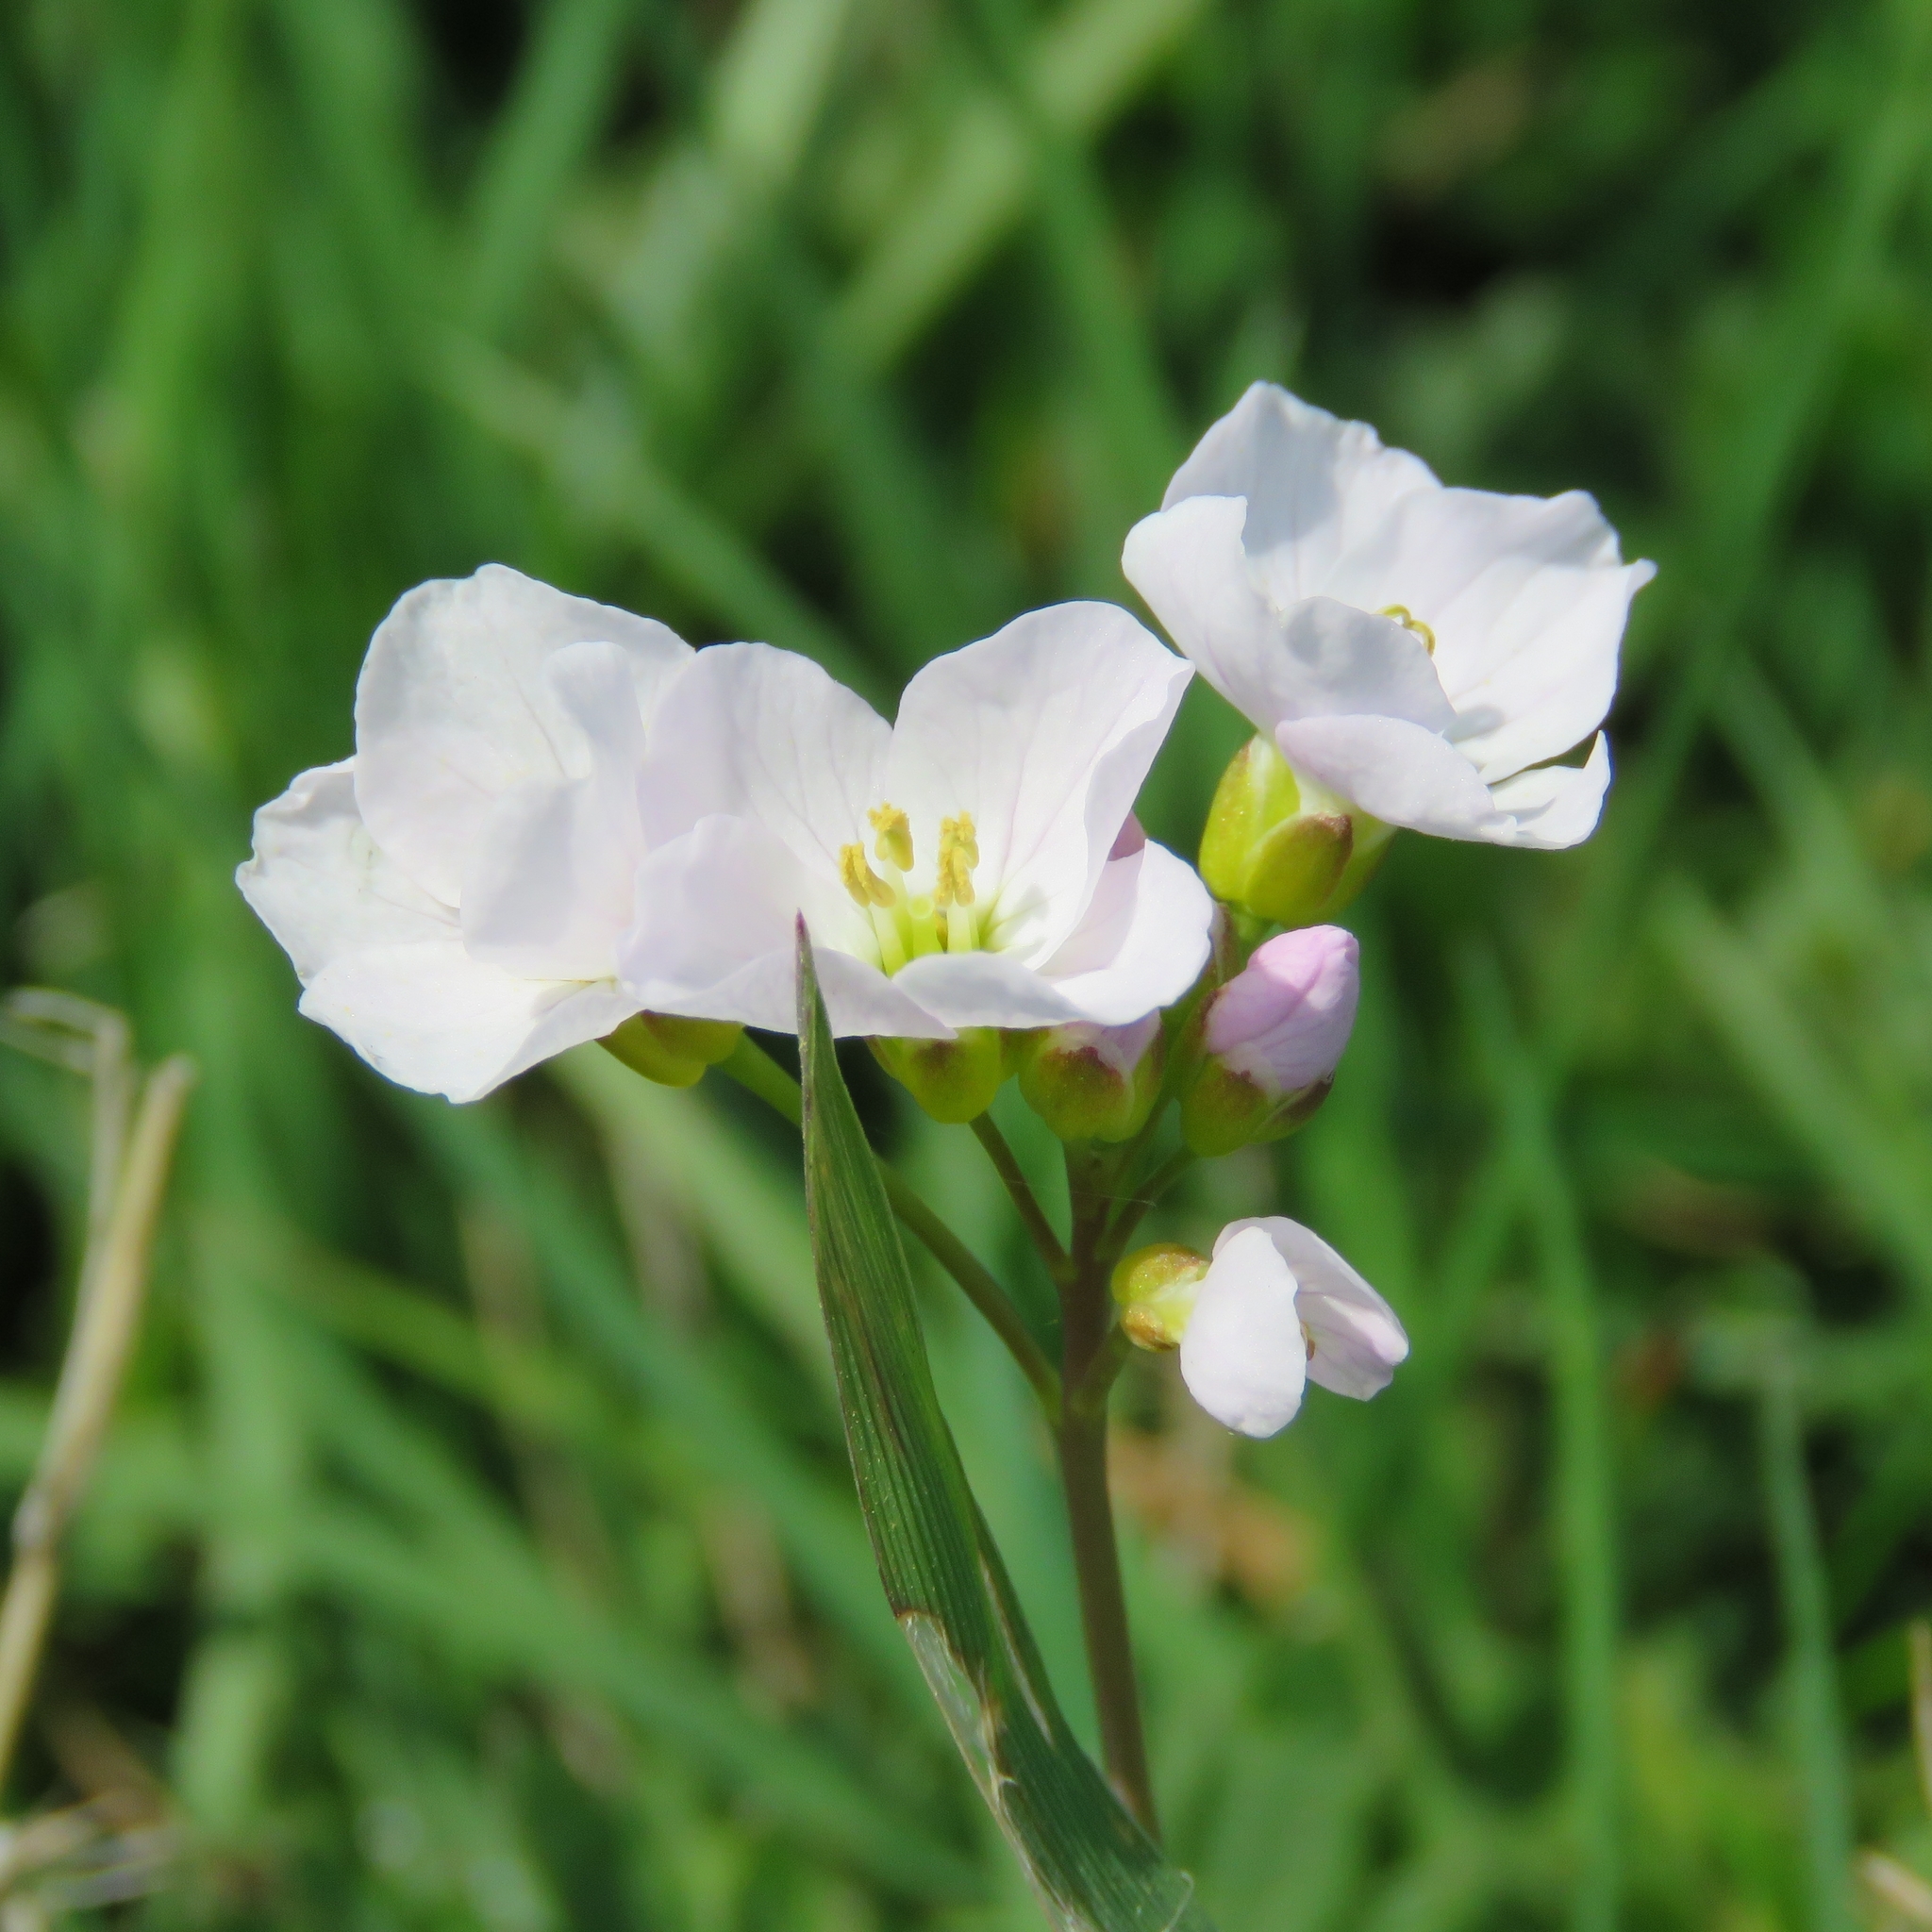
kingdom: Plantae
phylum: Tracheophyta
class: Magnoliopsida
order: Brassicales
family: Brassicaceae
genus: Cardamine
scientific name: Cardamine pratensis
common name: Cuckoo flower
